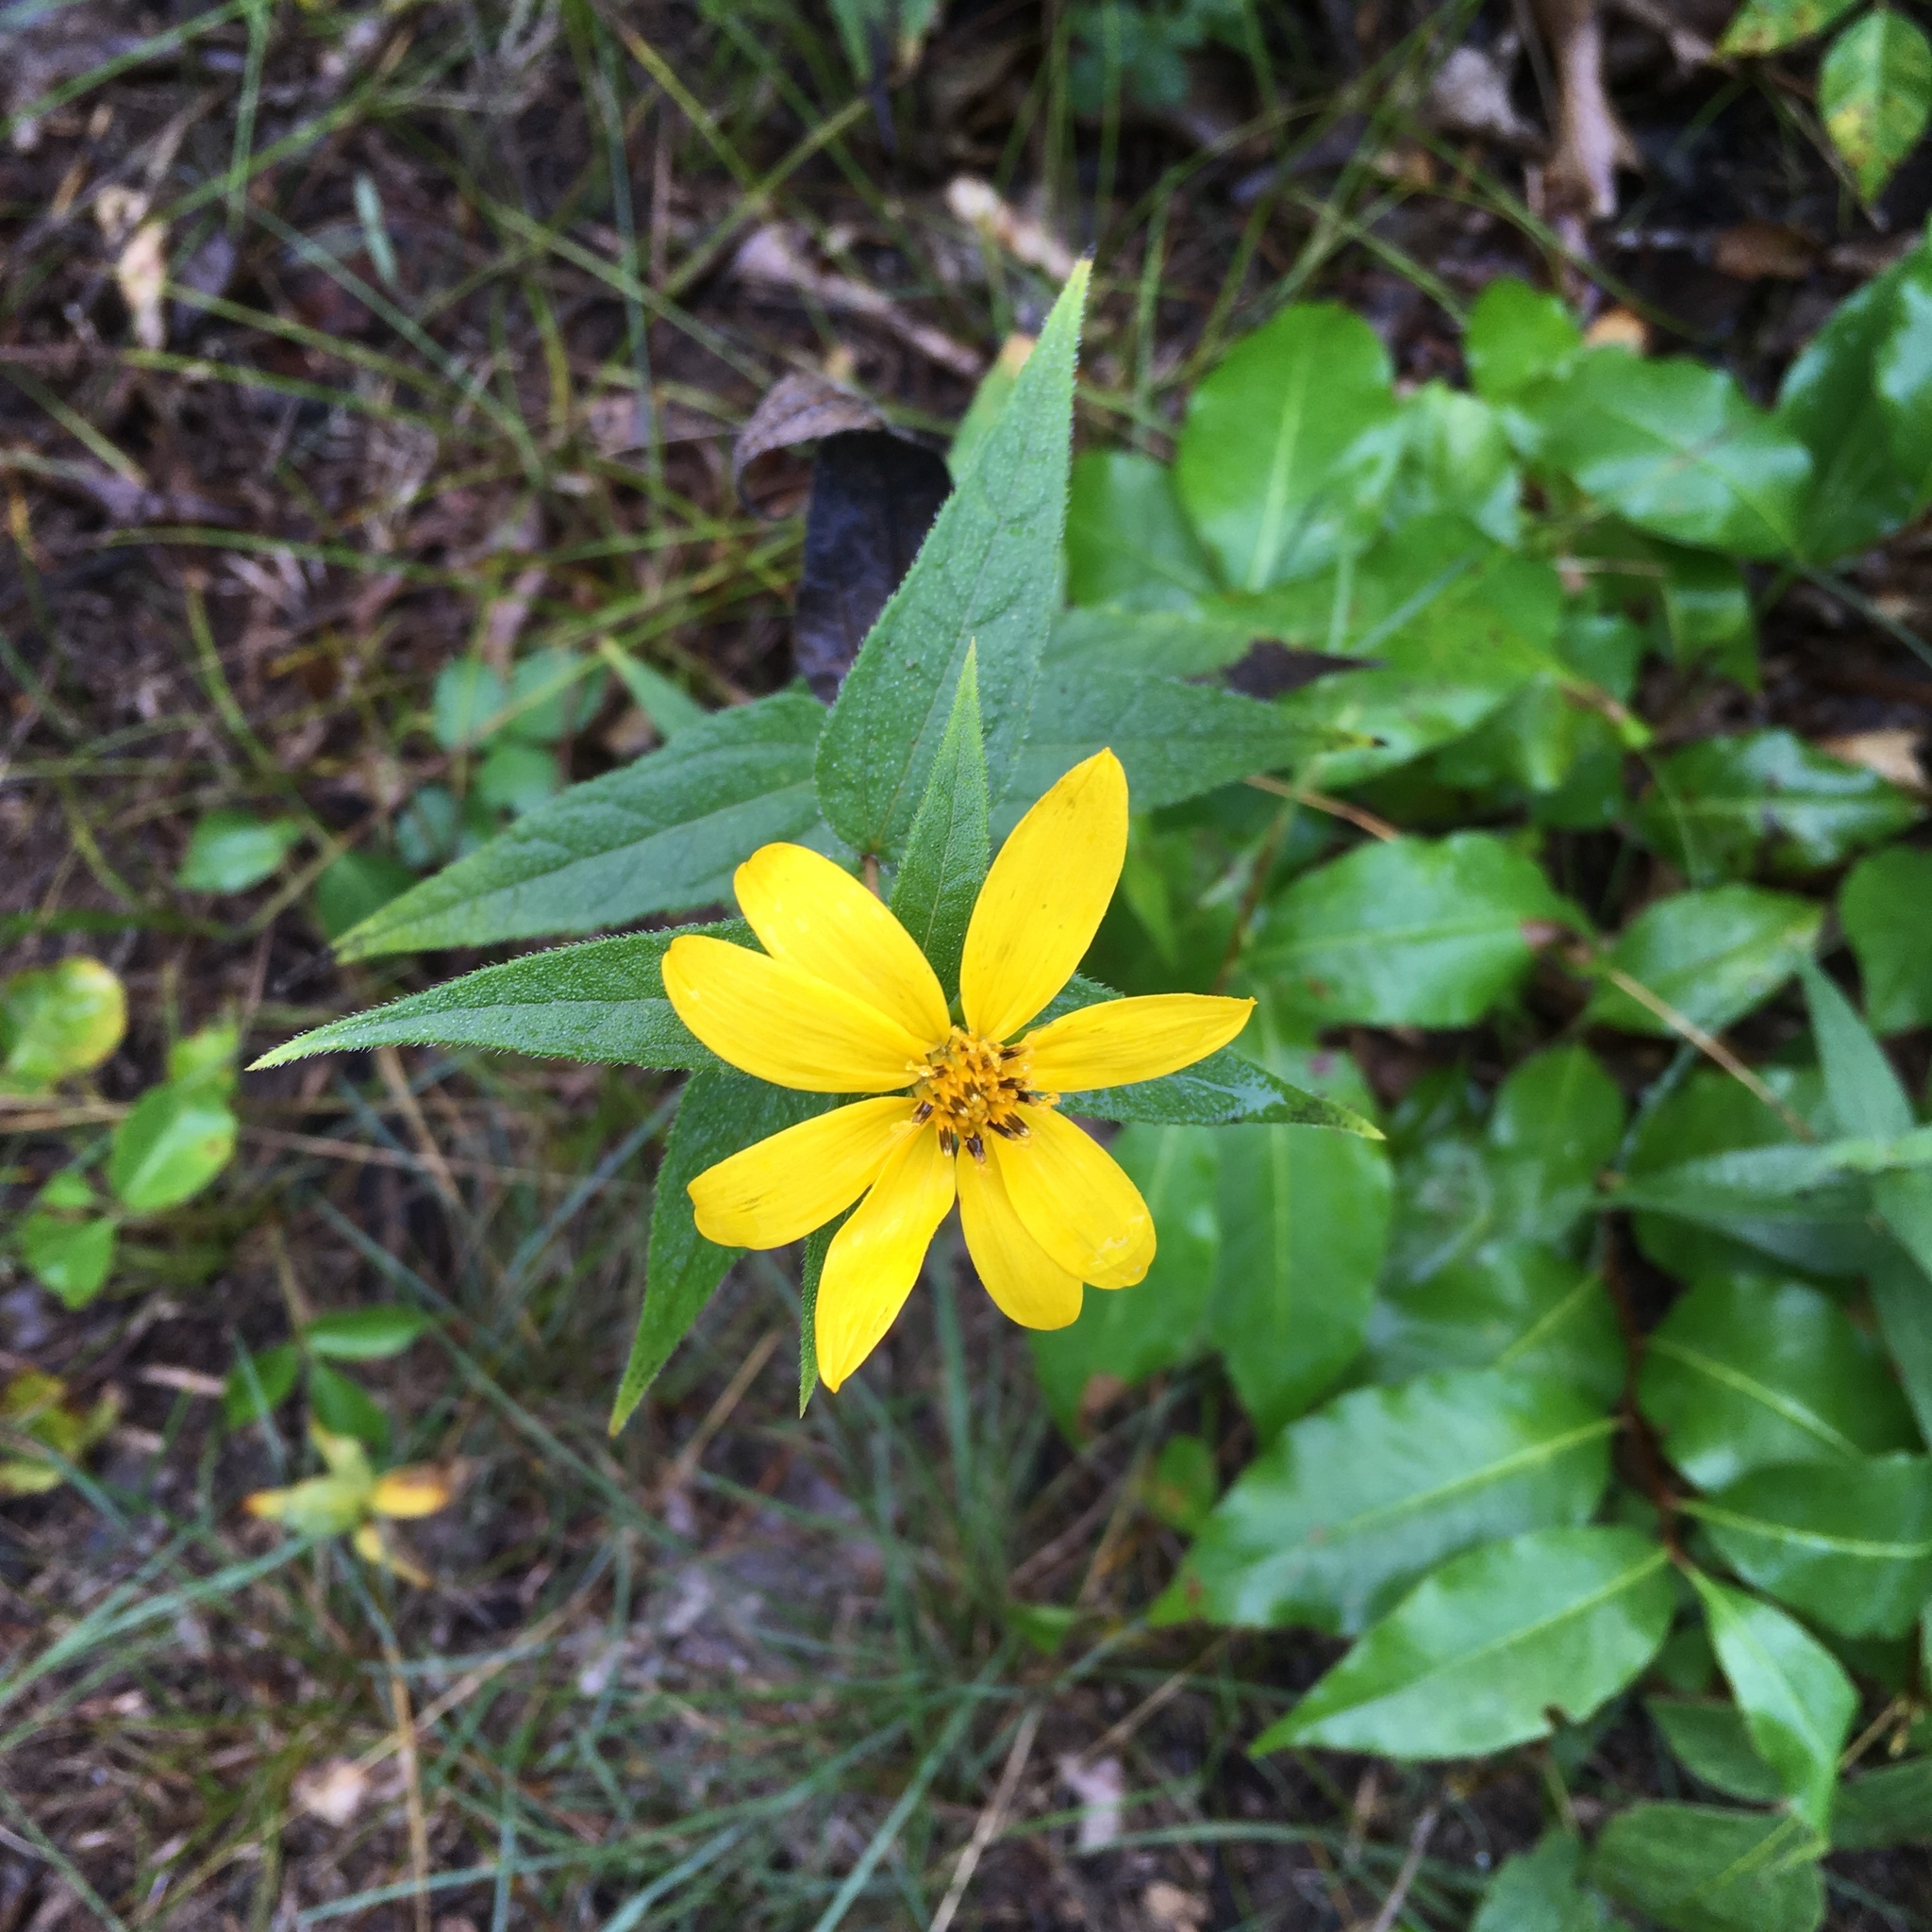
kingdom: Plantae
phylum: Tracheophyta
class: Magnoliopsida
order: Asterales
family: Asteraceae
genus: Helianthus
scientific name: Helianthus divaricatus
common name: Divergent sunflower
